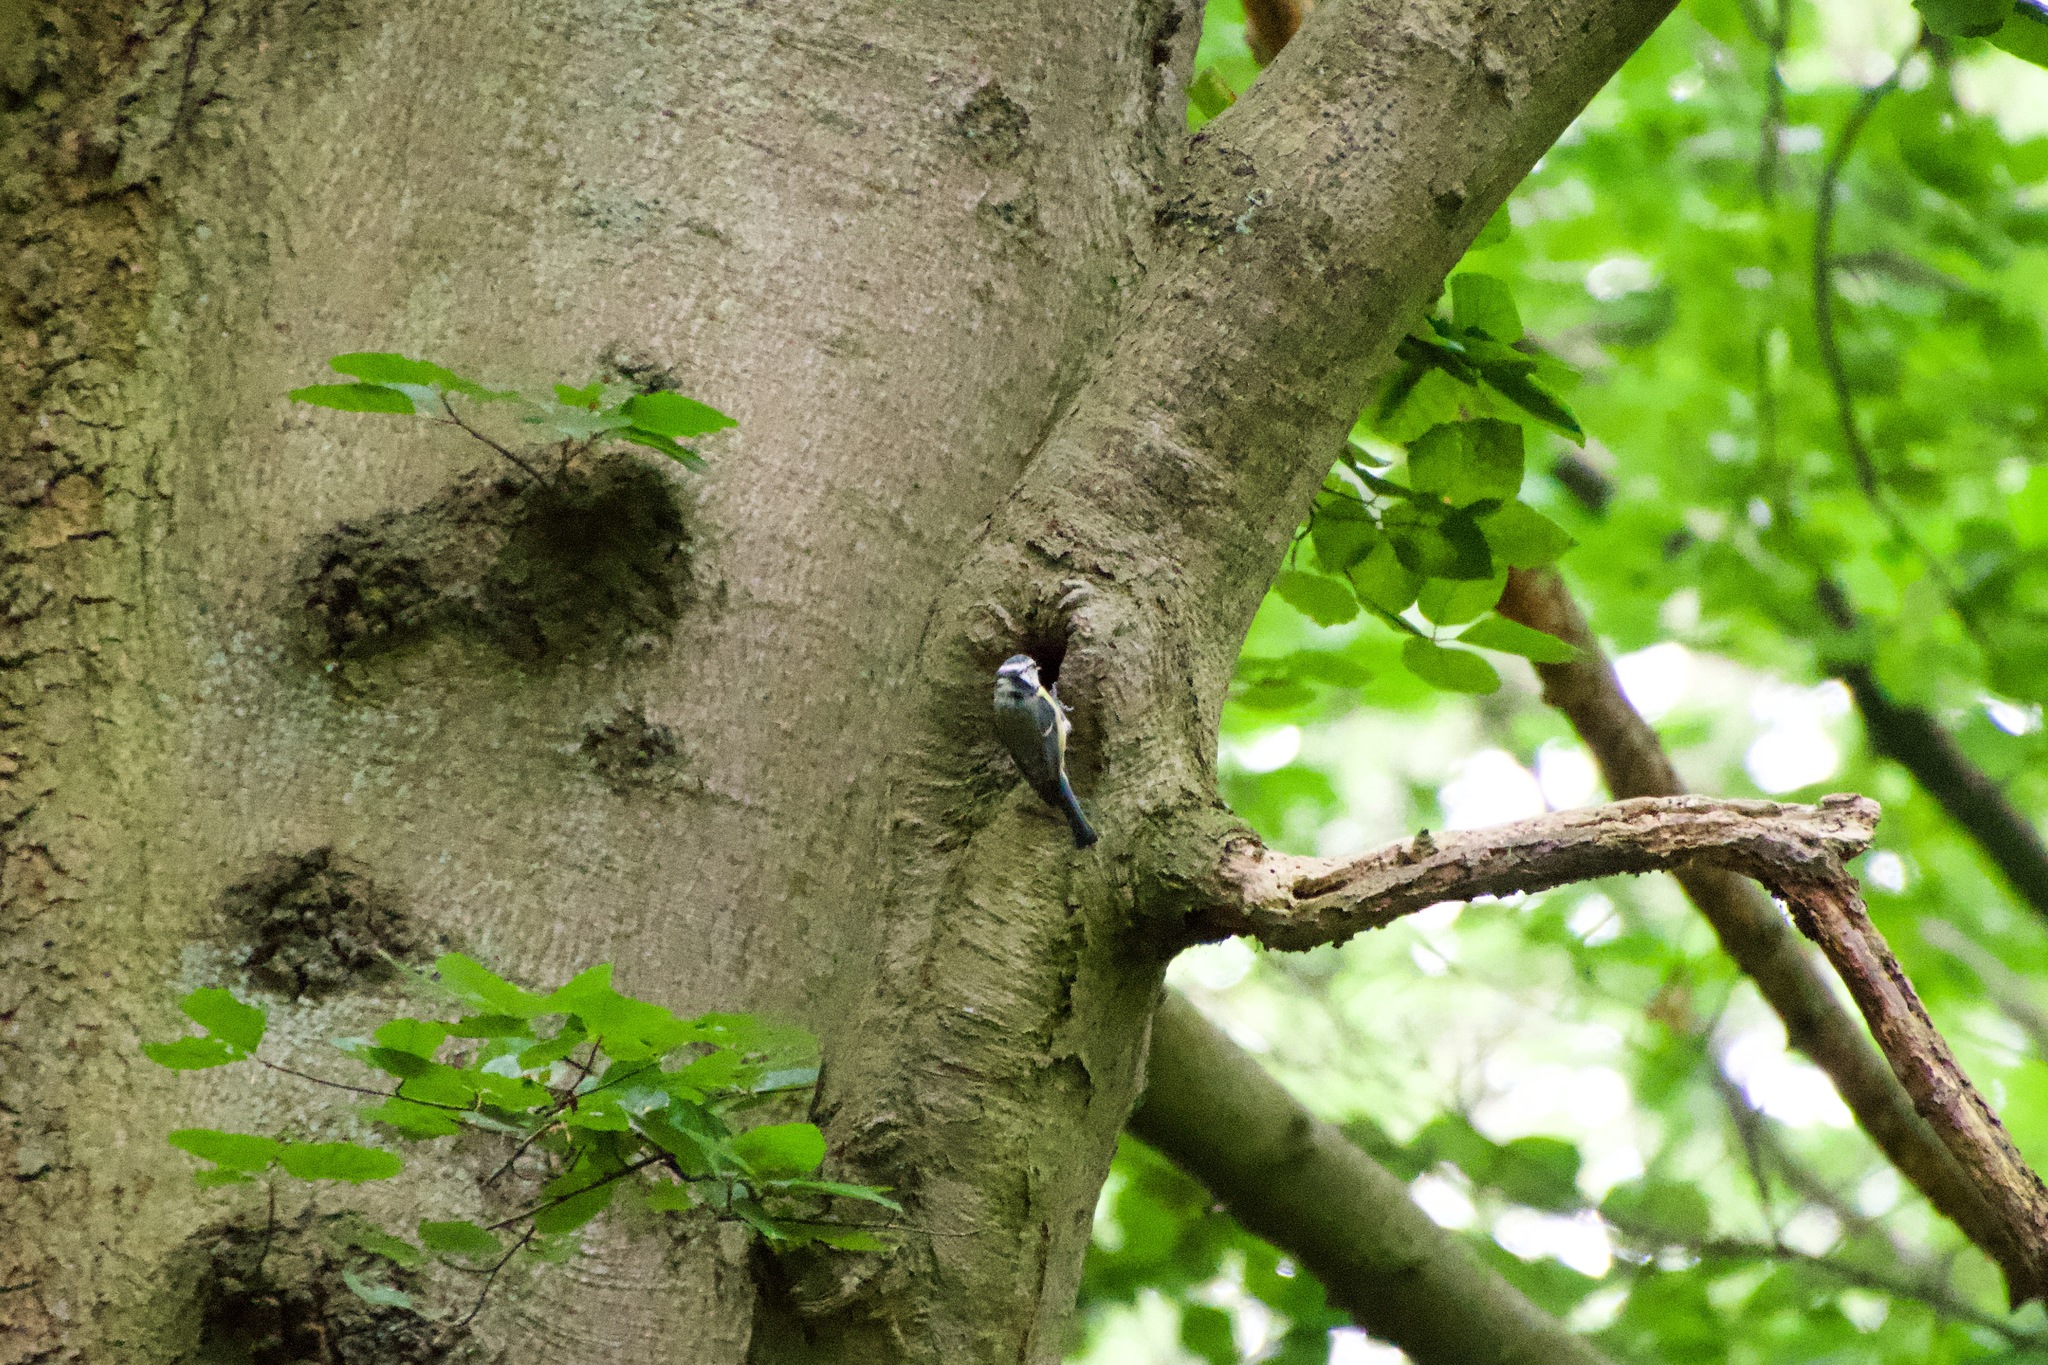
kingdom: Animalia
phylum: Chordata
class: Aves
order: Passeriformes
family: Paridae
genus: Cyanistes
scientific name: Cyanistes caeruleus
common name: Eurasian blue tit
